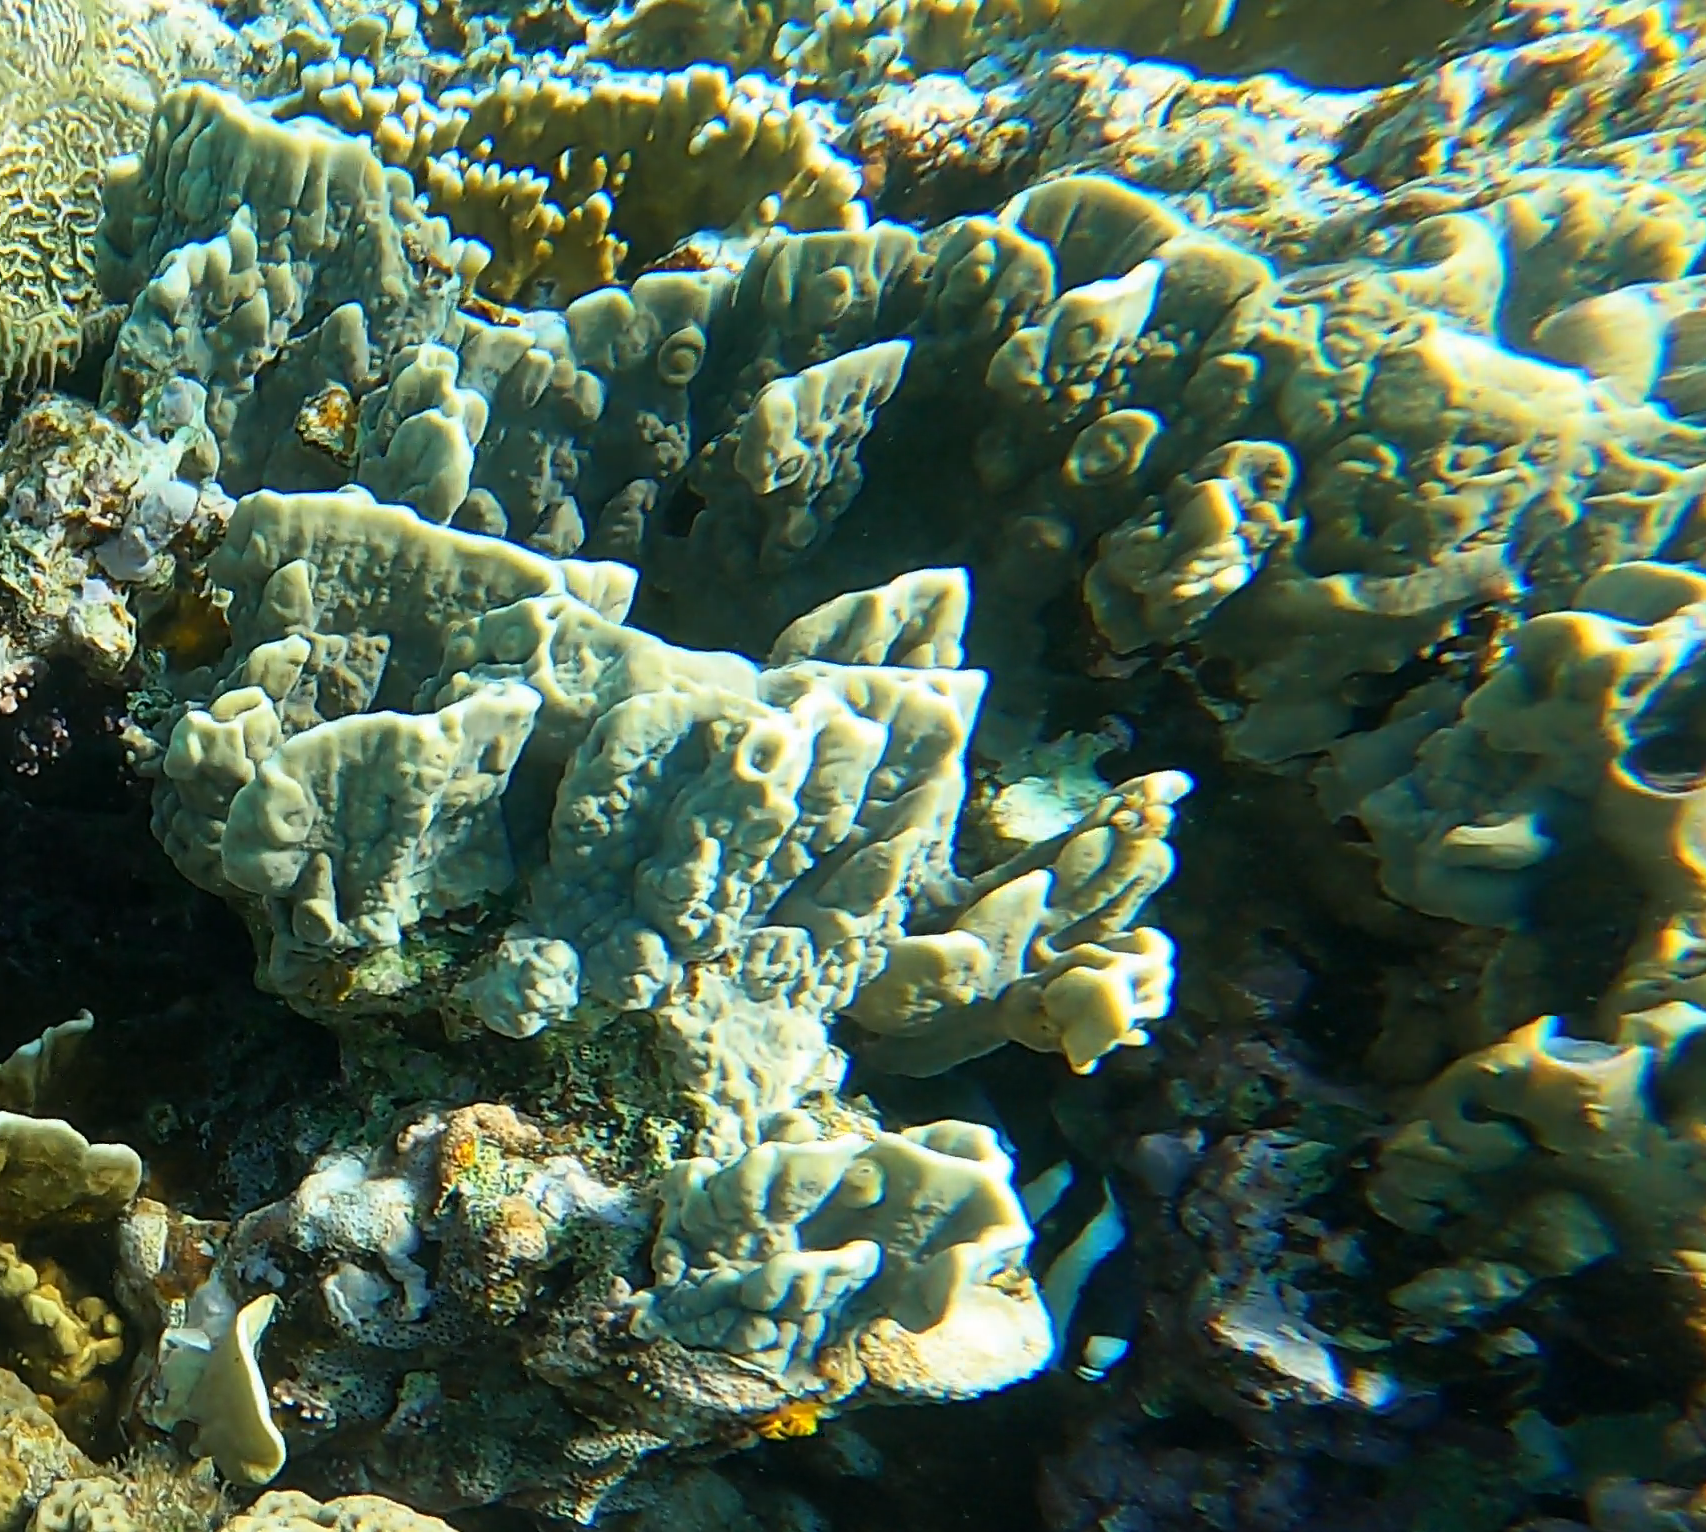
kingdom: Animalia
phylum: Cnidaria
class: Hydrozoa
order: Anthoathecata
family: Milleporidae
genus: Millepora
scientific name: Millepora platyphylla
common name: Sheet fire coral
